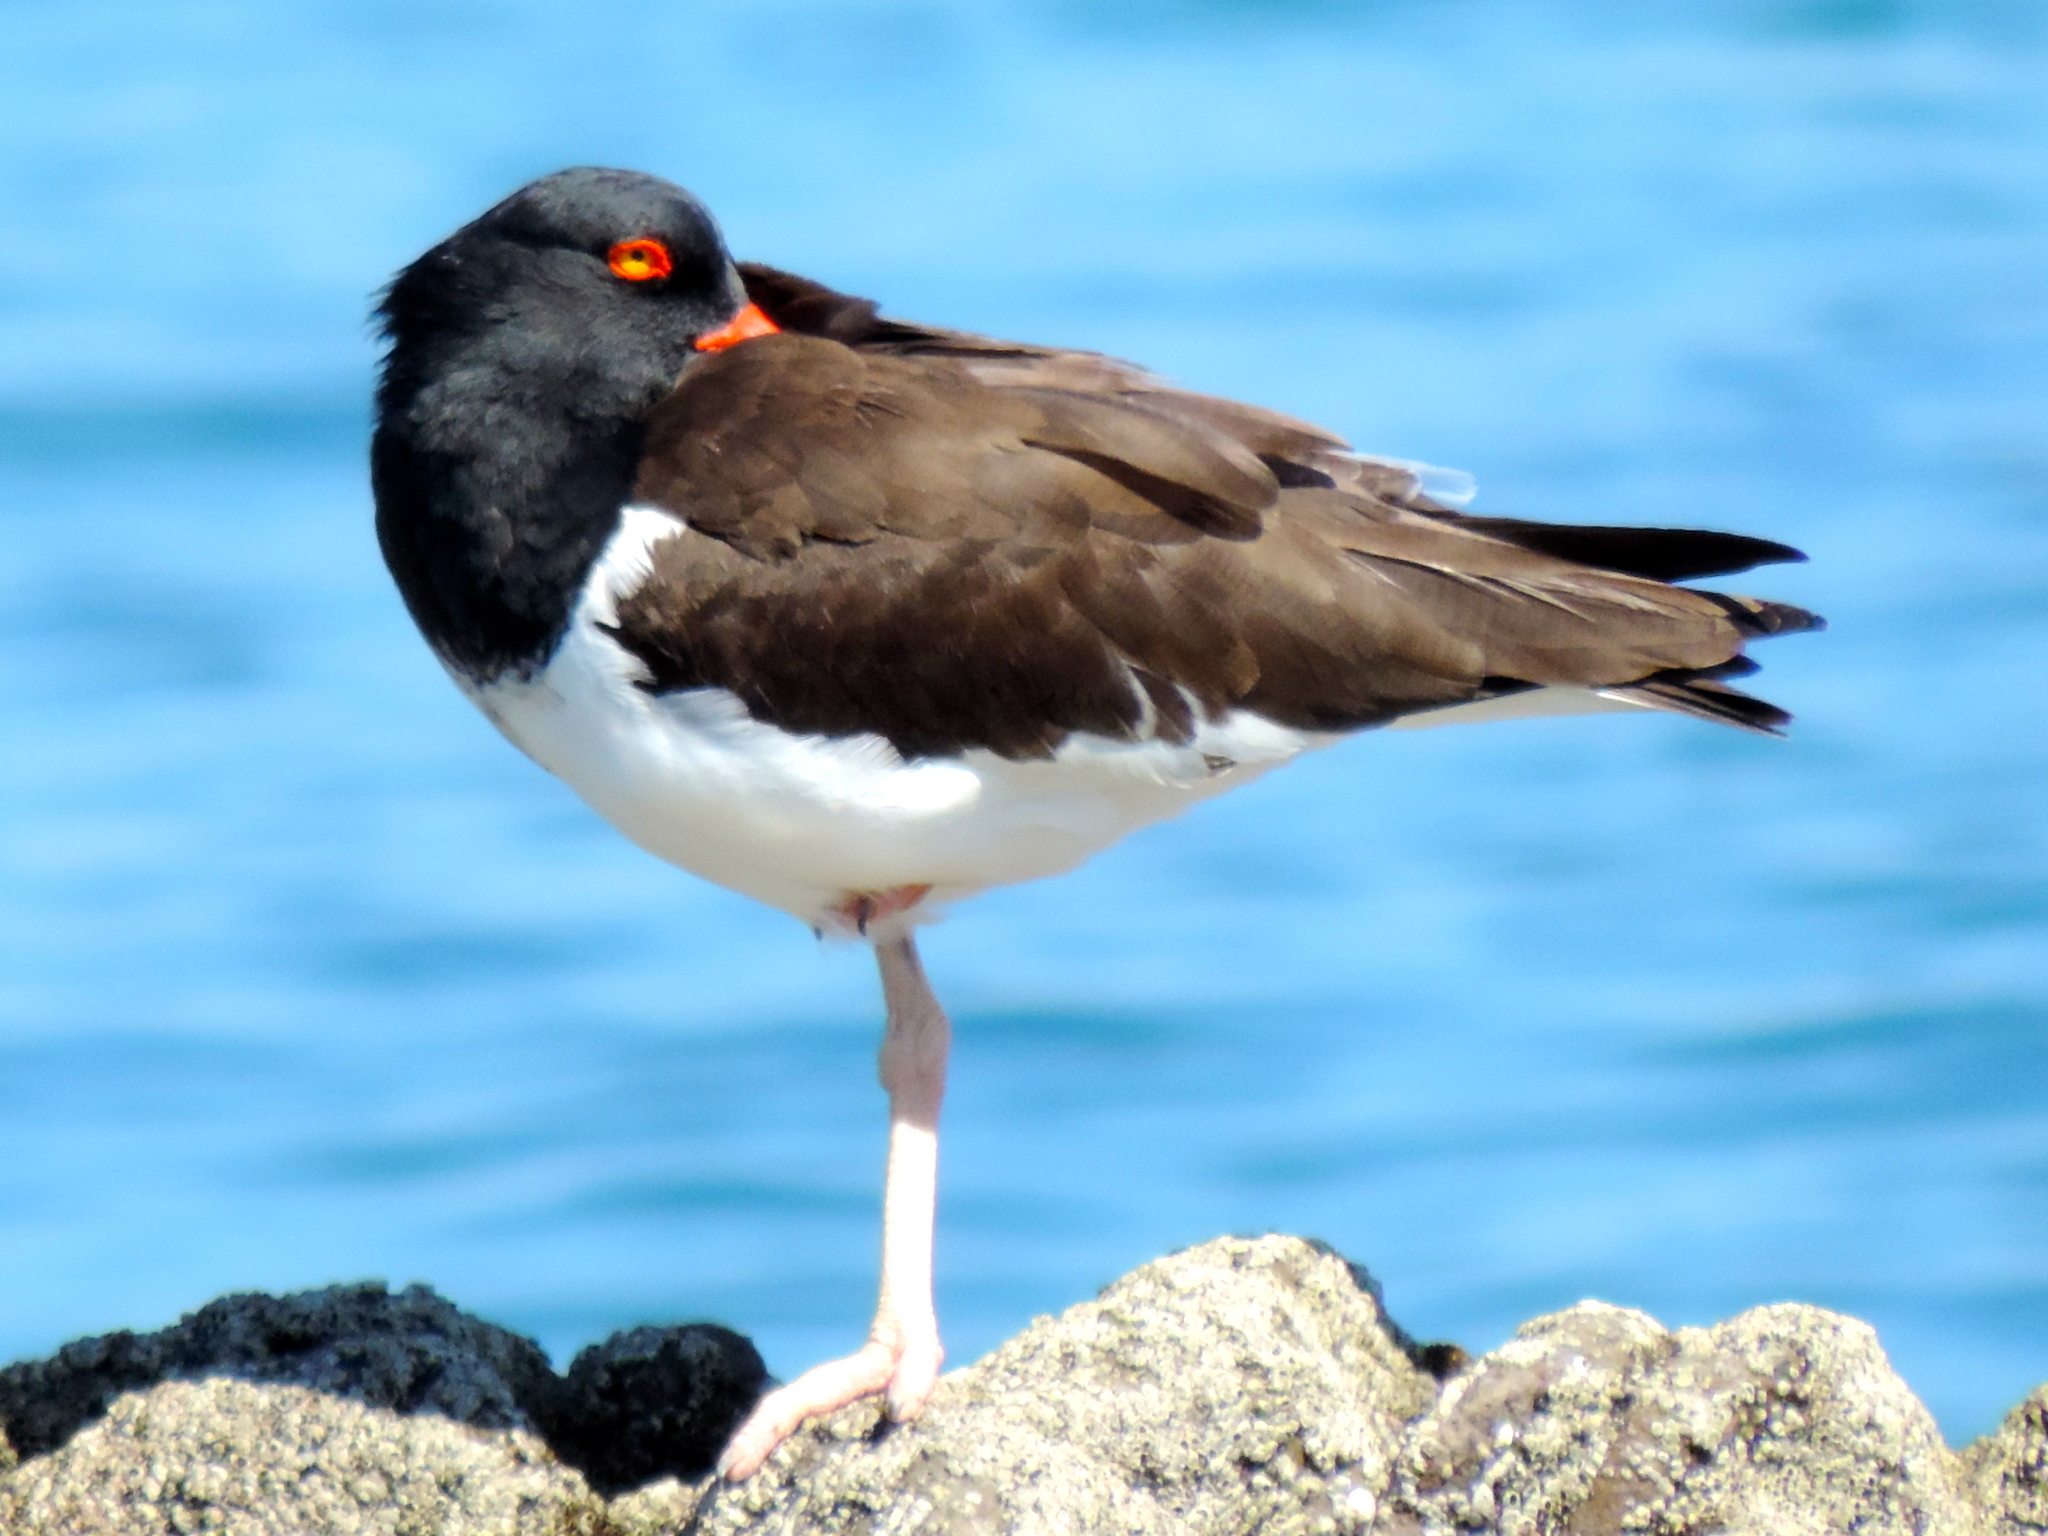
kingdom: Animalia
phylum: Chordata
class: Aves
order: Charadriiformes
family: Haematopodidae
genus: Haematopus
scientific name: Haematopus palliatus
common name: American oystercatcher
